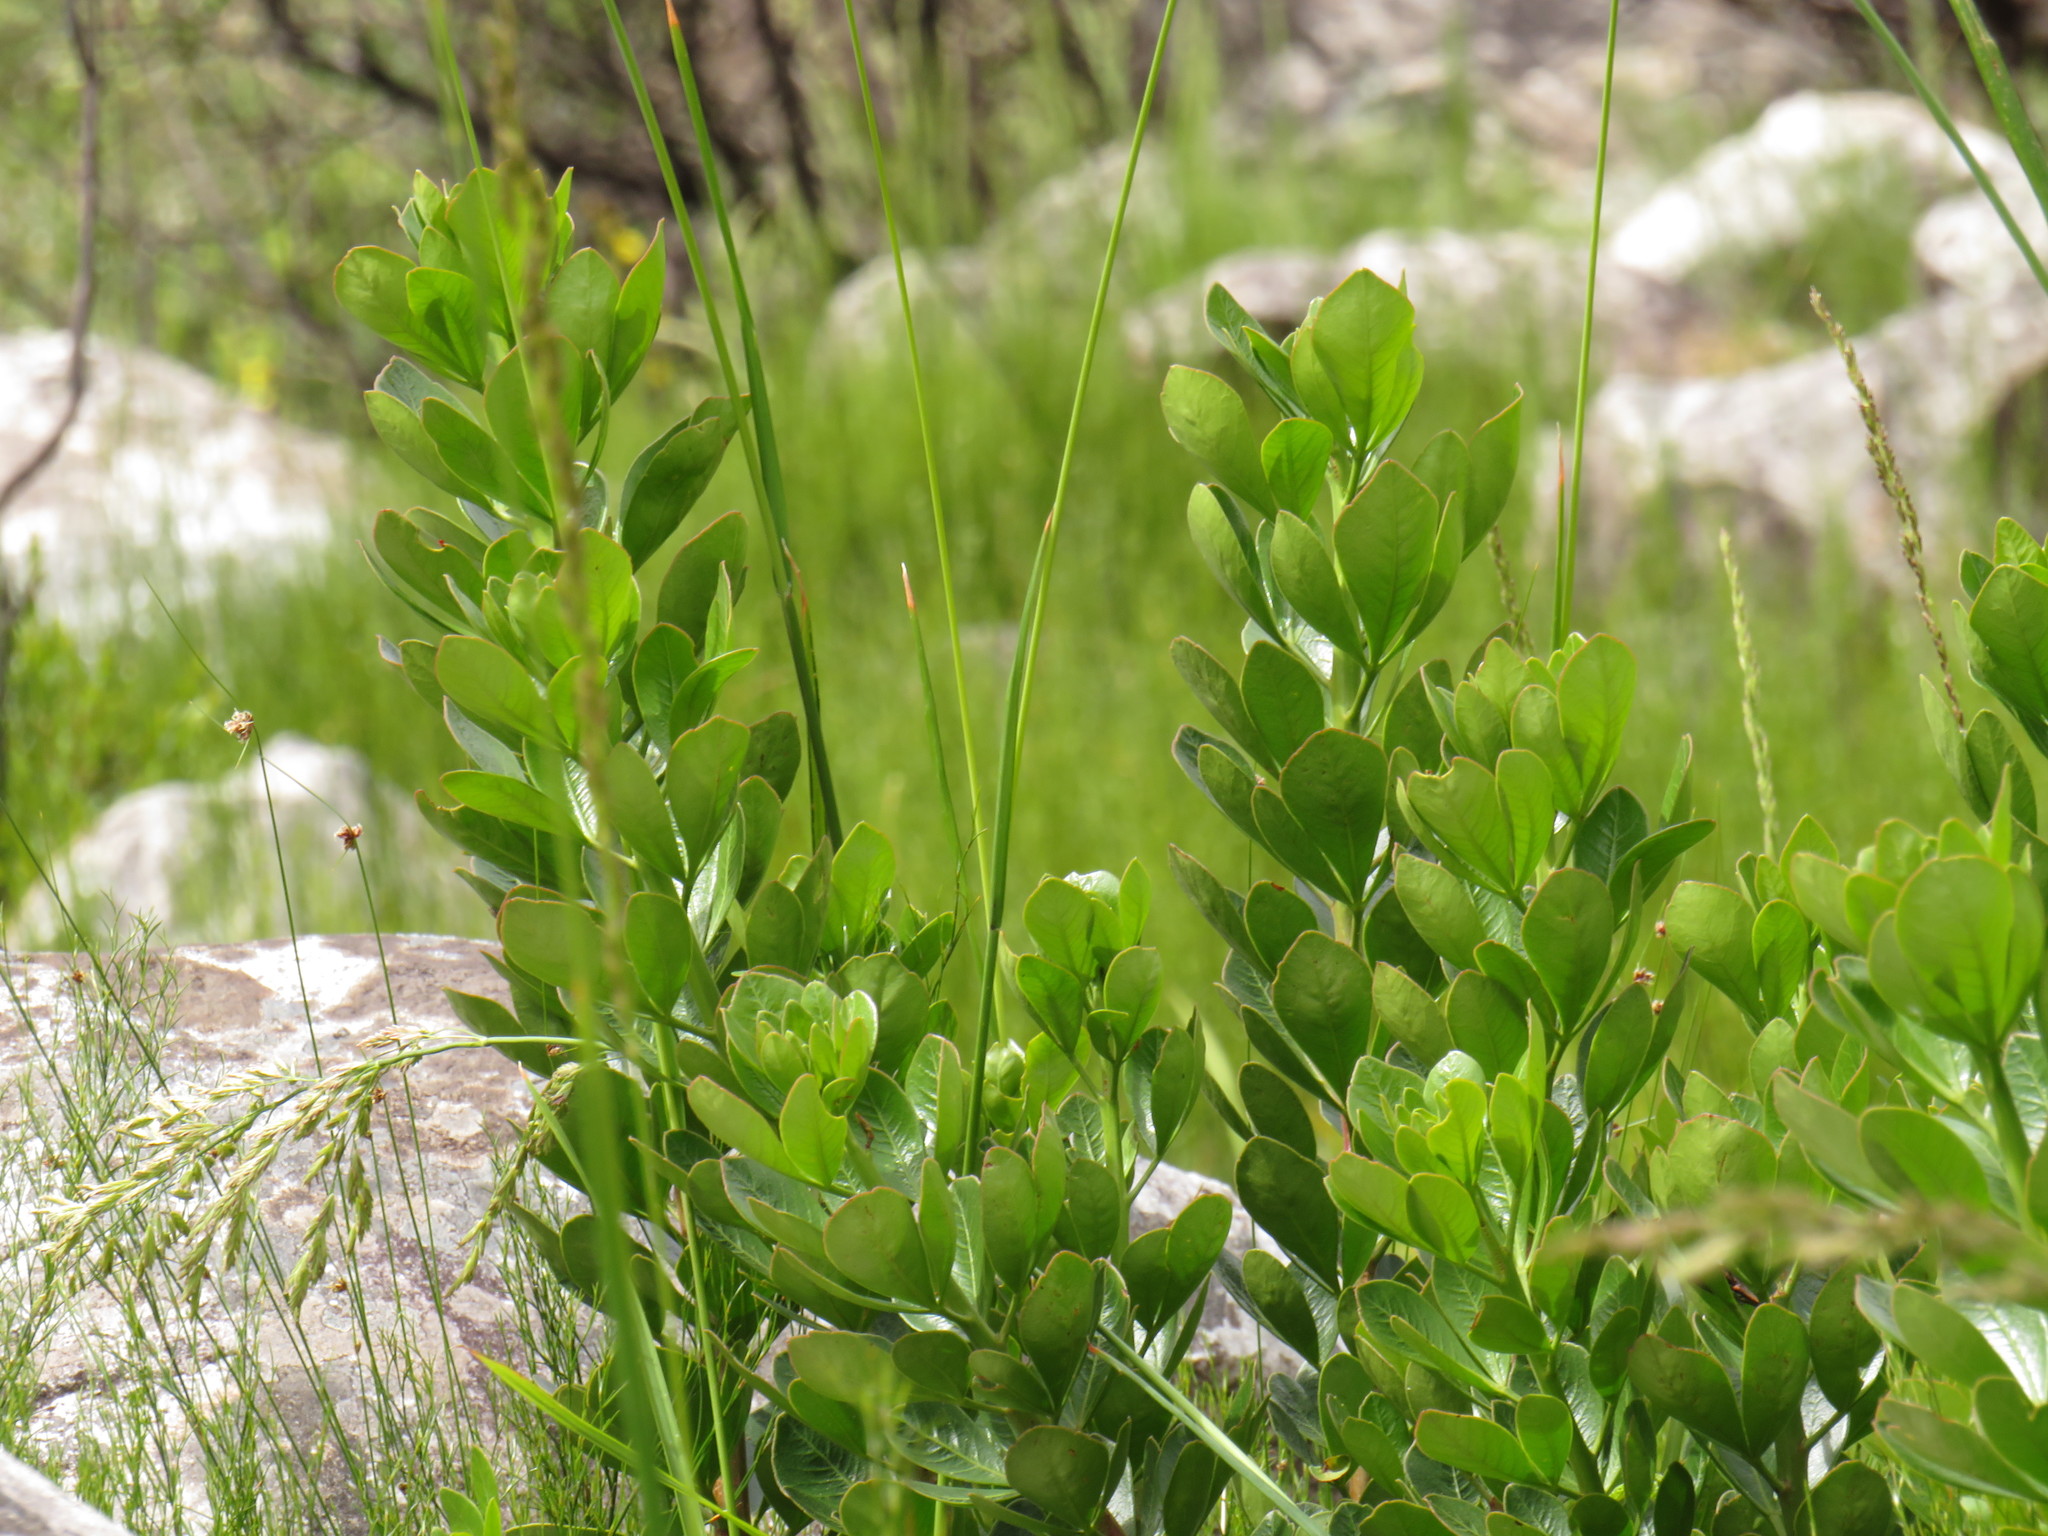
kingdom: Plantae
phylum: Tracheophyta
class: Magnoliopsida
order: Sapindales
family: Anacardiaceae
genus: Searsia
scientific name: Searsia scytophylla
